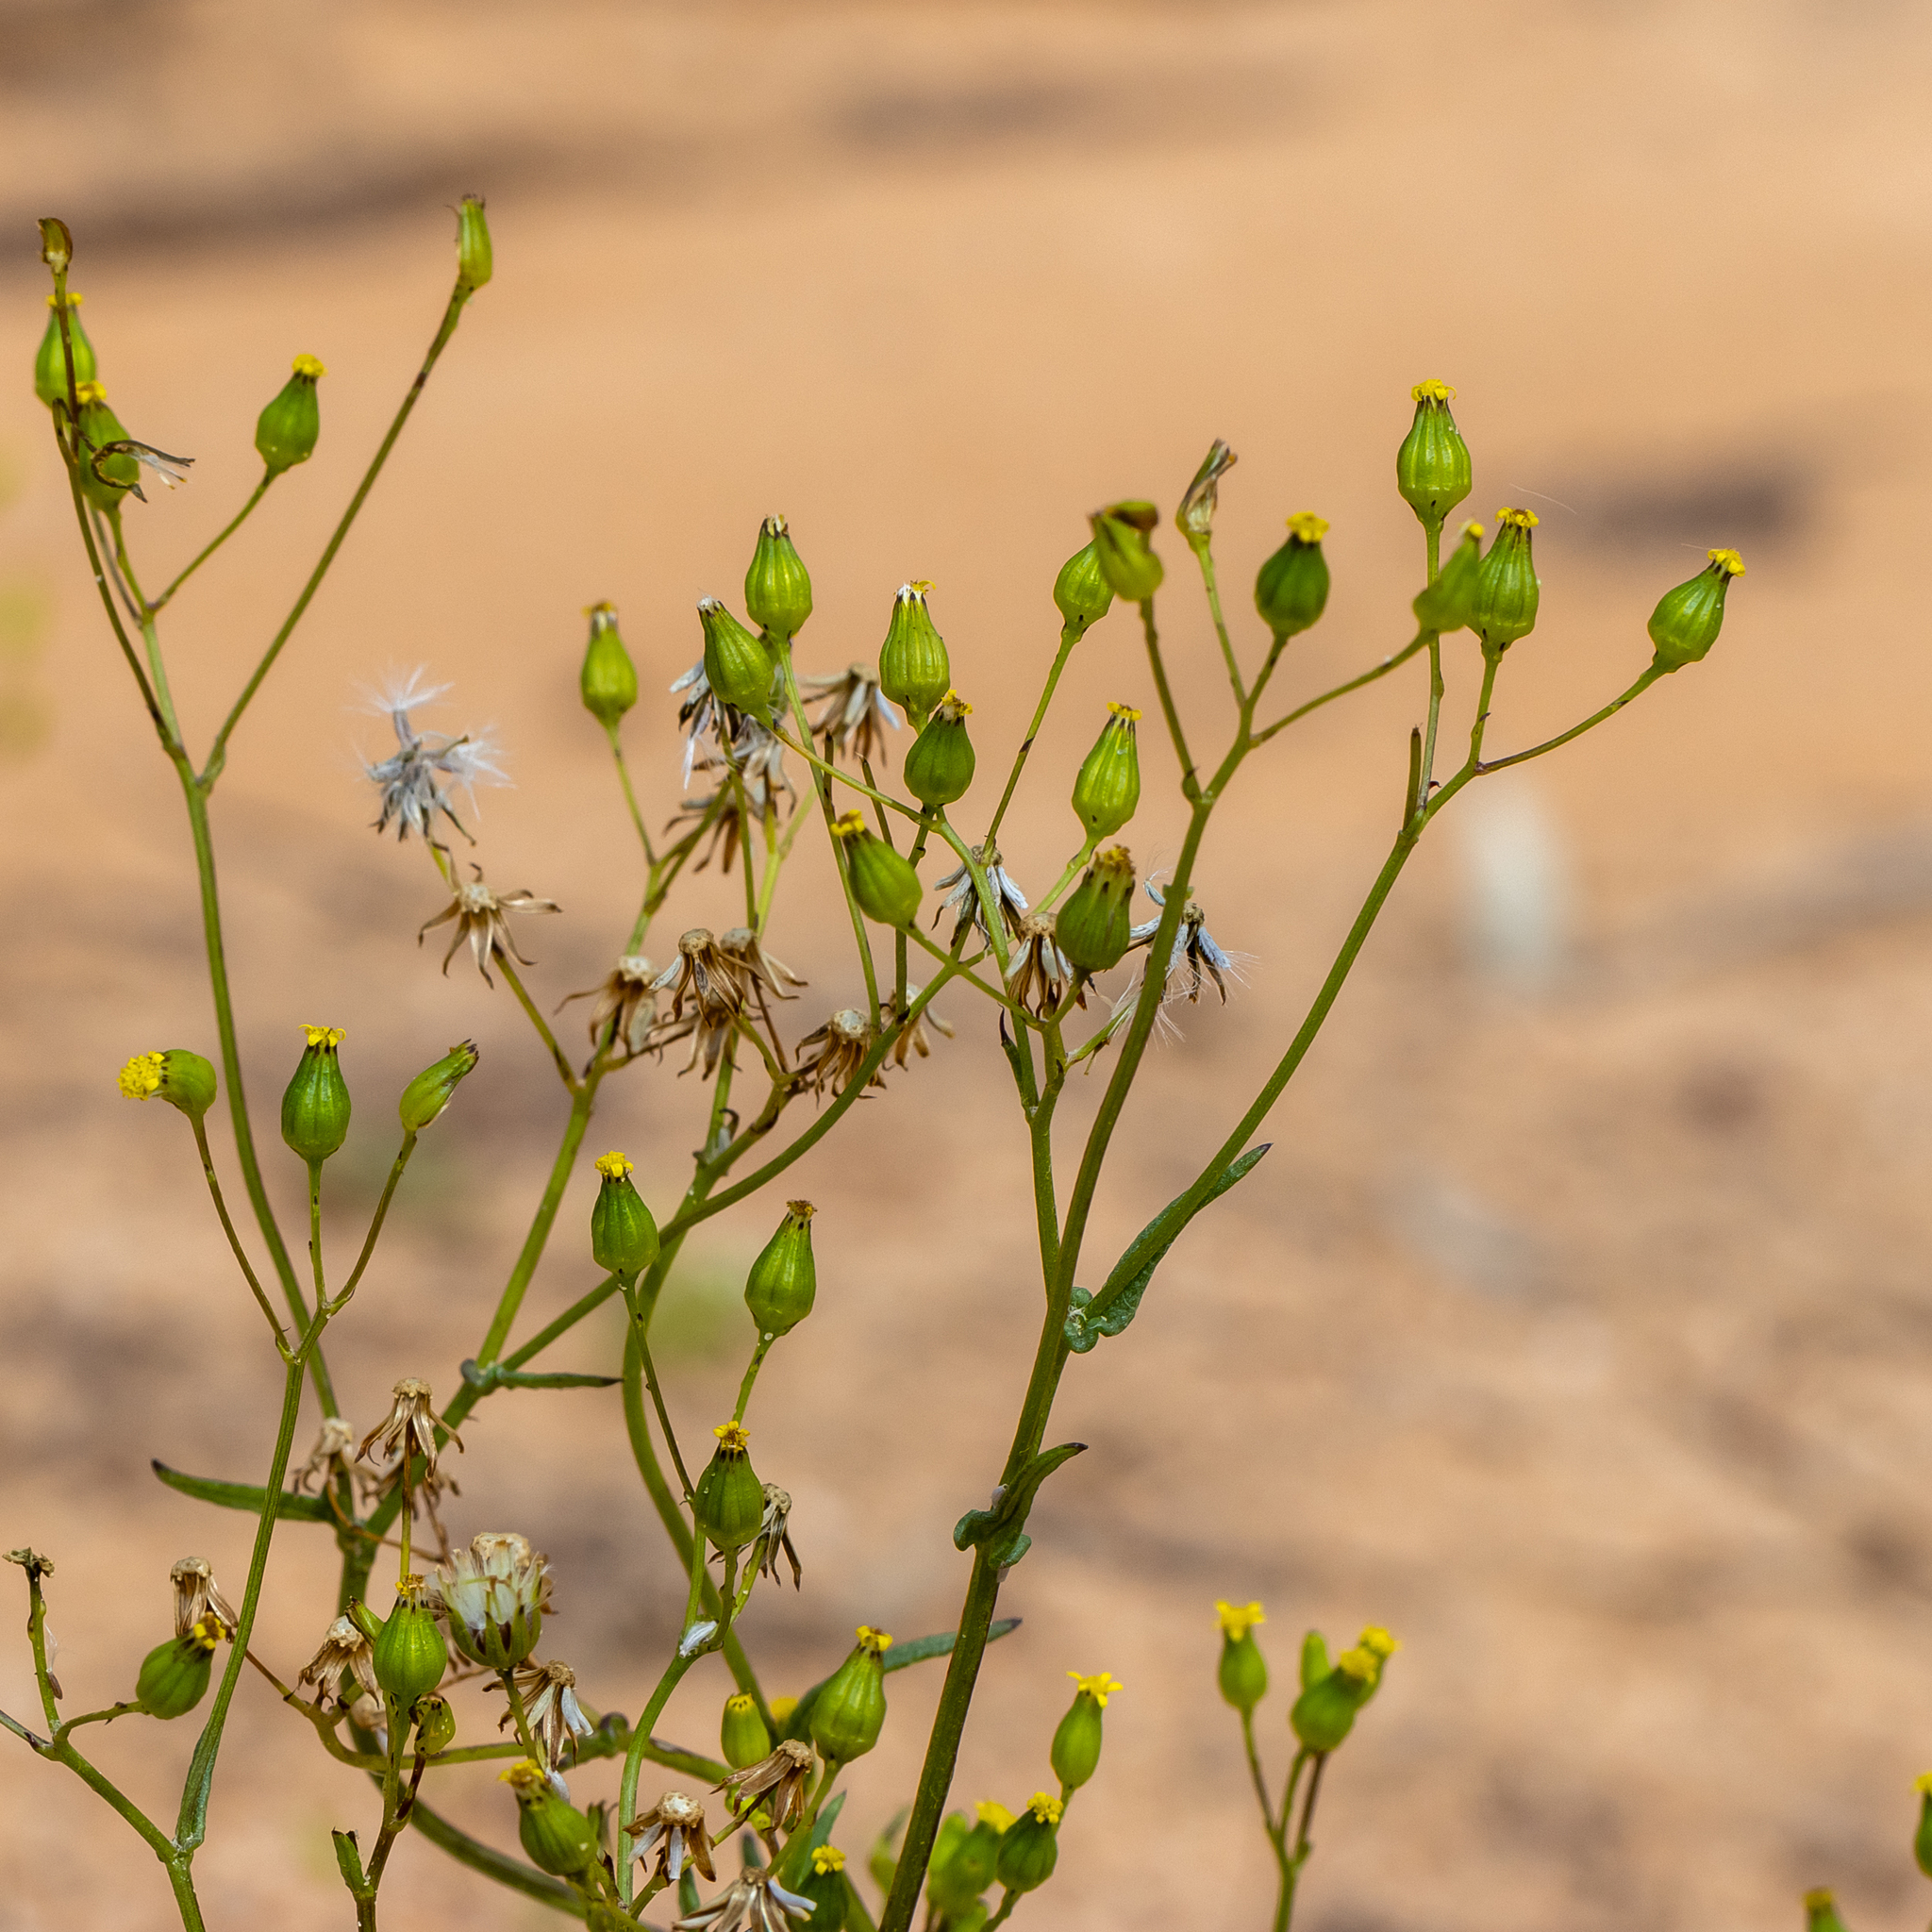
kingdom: Plantae
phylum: Tracheophyta
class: Magnoliopsida
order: Asterales
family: Asteraceae
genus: Senecio
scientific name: Senecio glossanthus
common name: Slender groundsel
